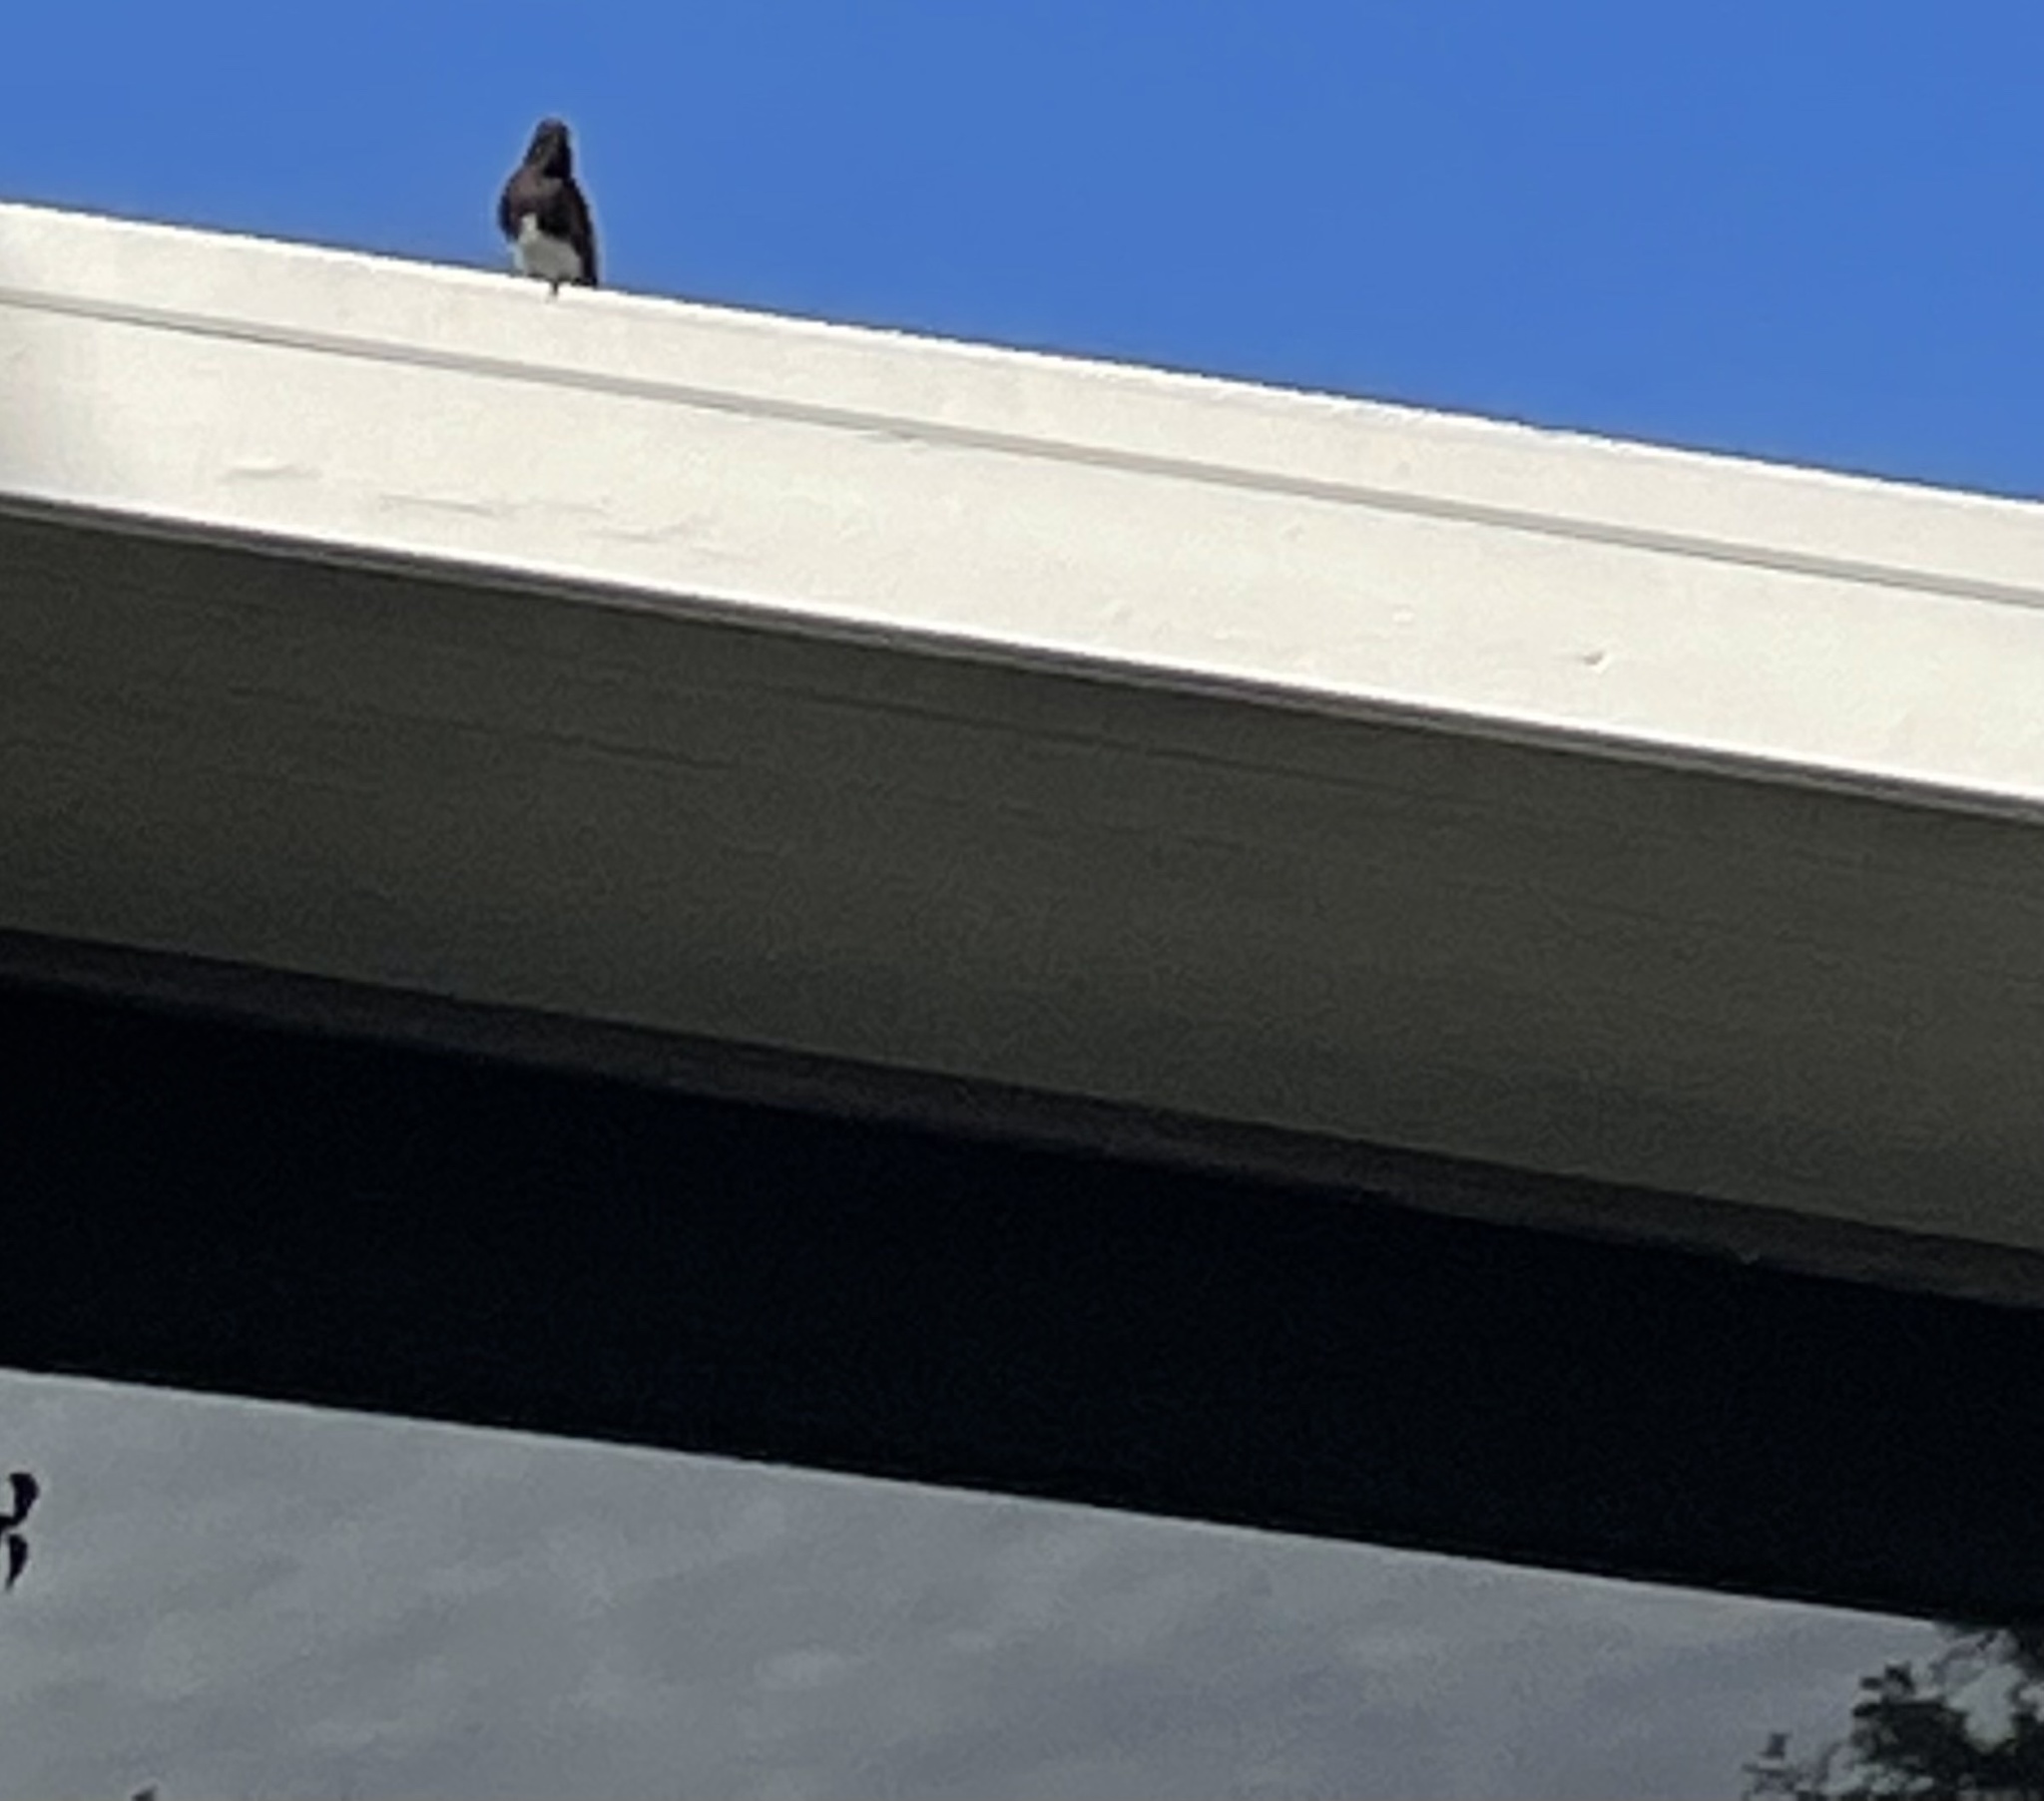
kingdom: Animalia
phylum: Chordata
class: Aves
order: Passeriformes
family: Tyrannidae
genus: Sayornis
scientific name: Sayornis nigricans
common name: Black phoebe
